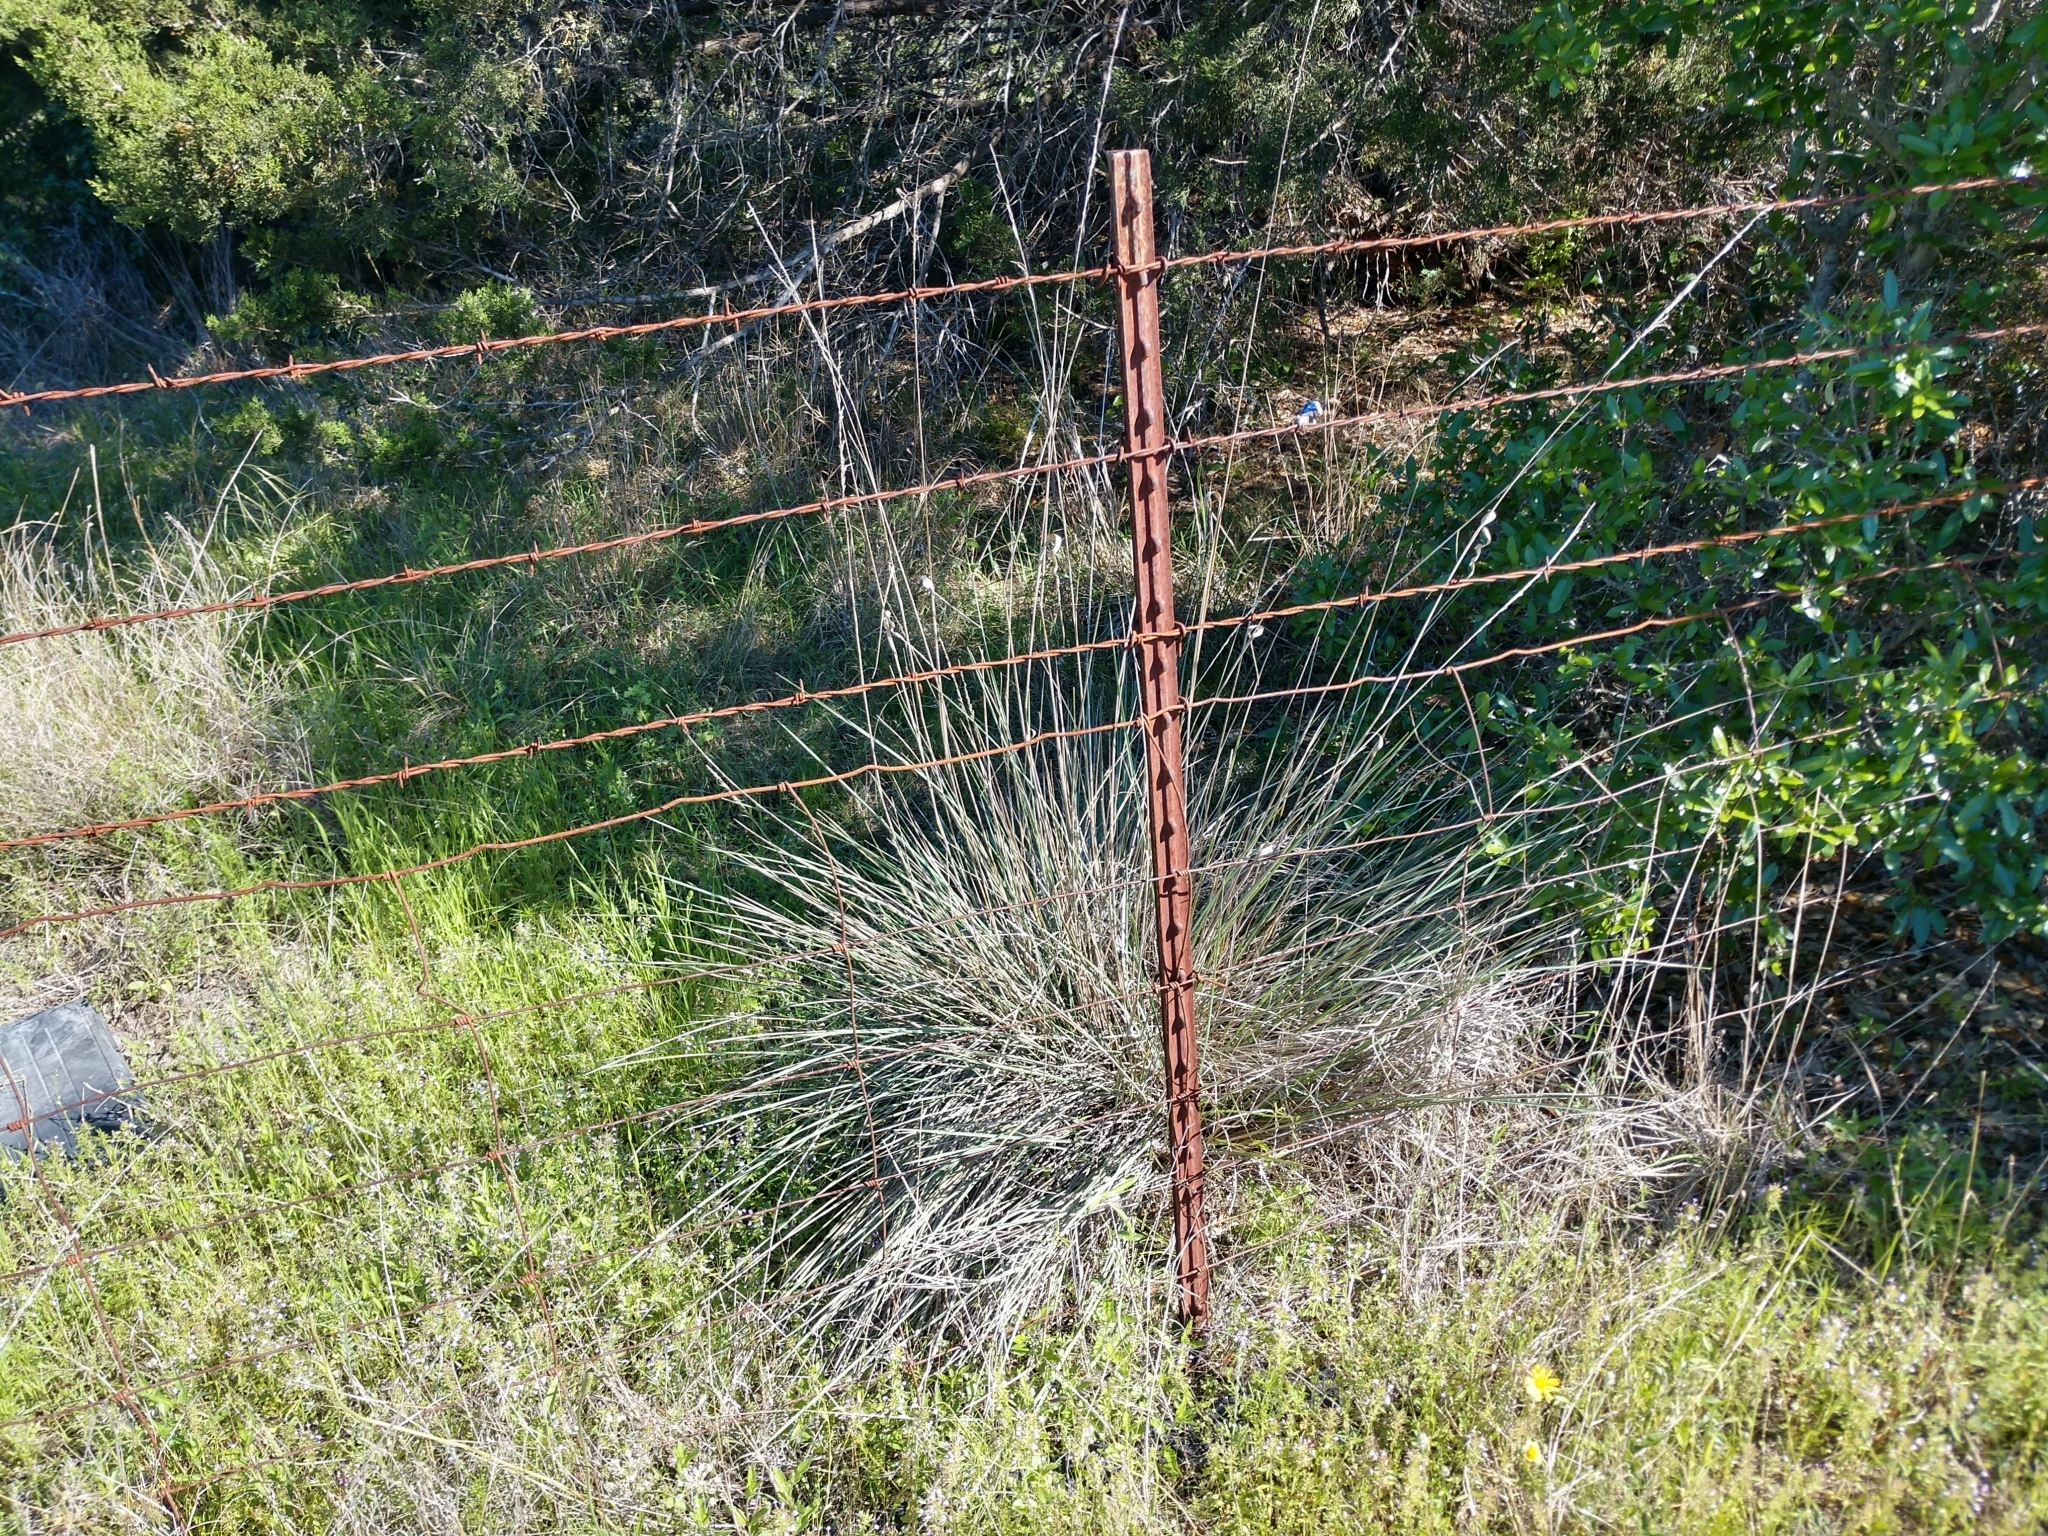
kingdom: Plantae
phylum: Tracheophyta
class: Liliopsida
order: Poales
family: Poaceae
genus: Muhlenbergia
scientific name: Muhlenbergia lindheimeri
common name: Lindheimer's muhly
